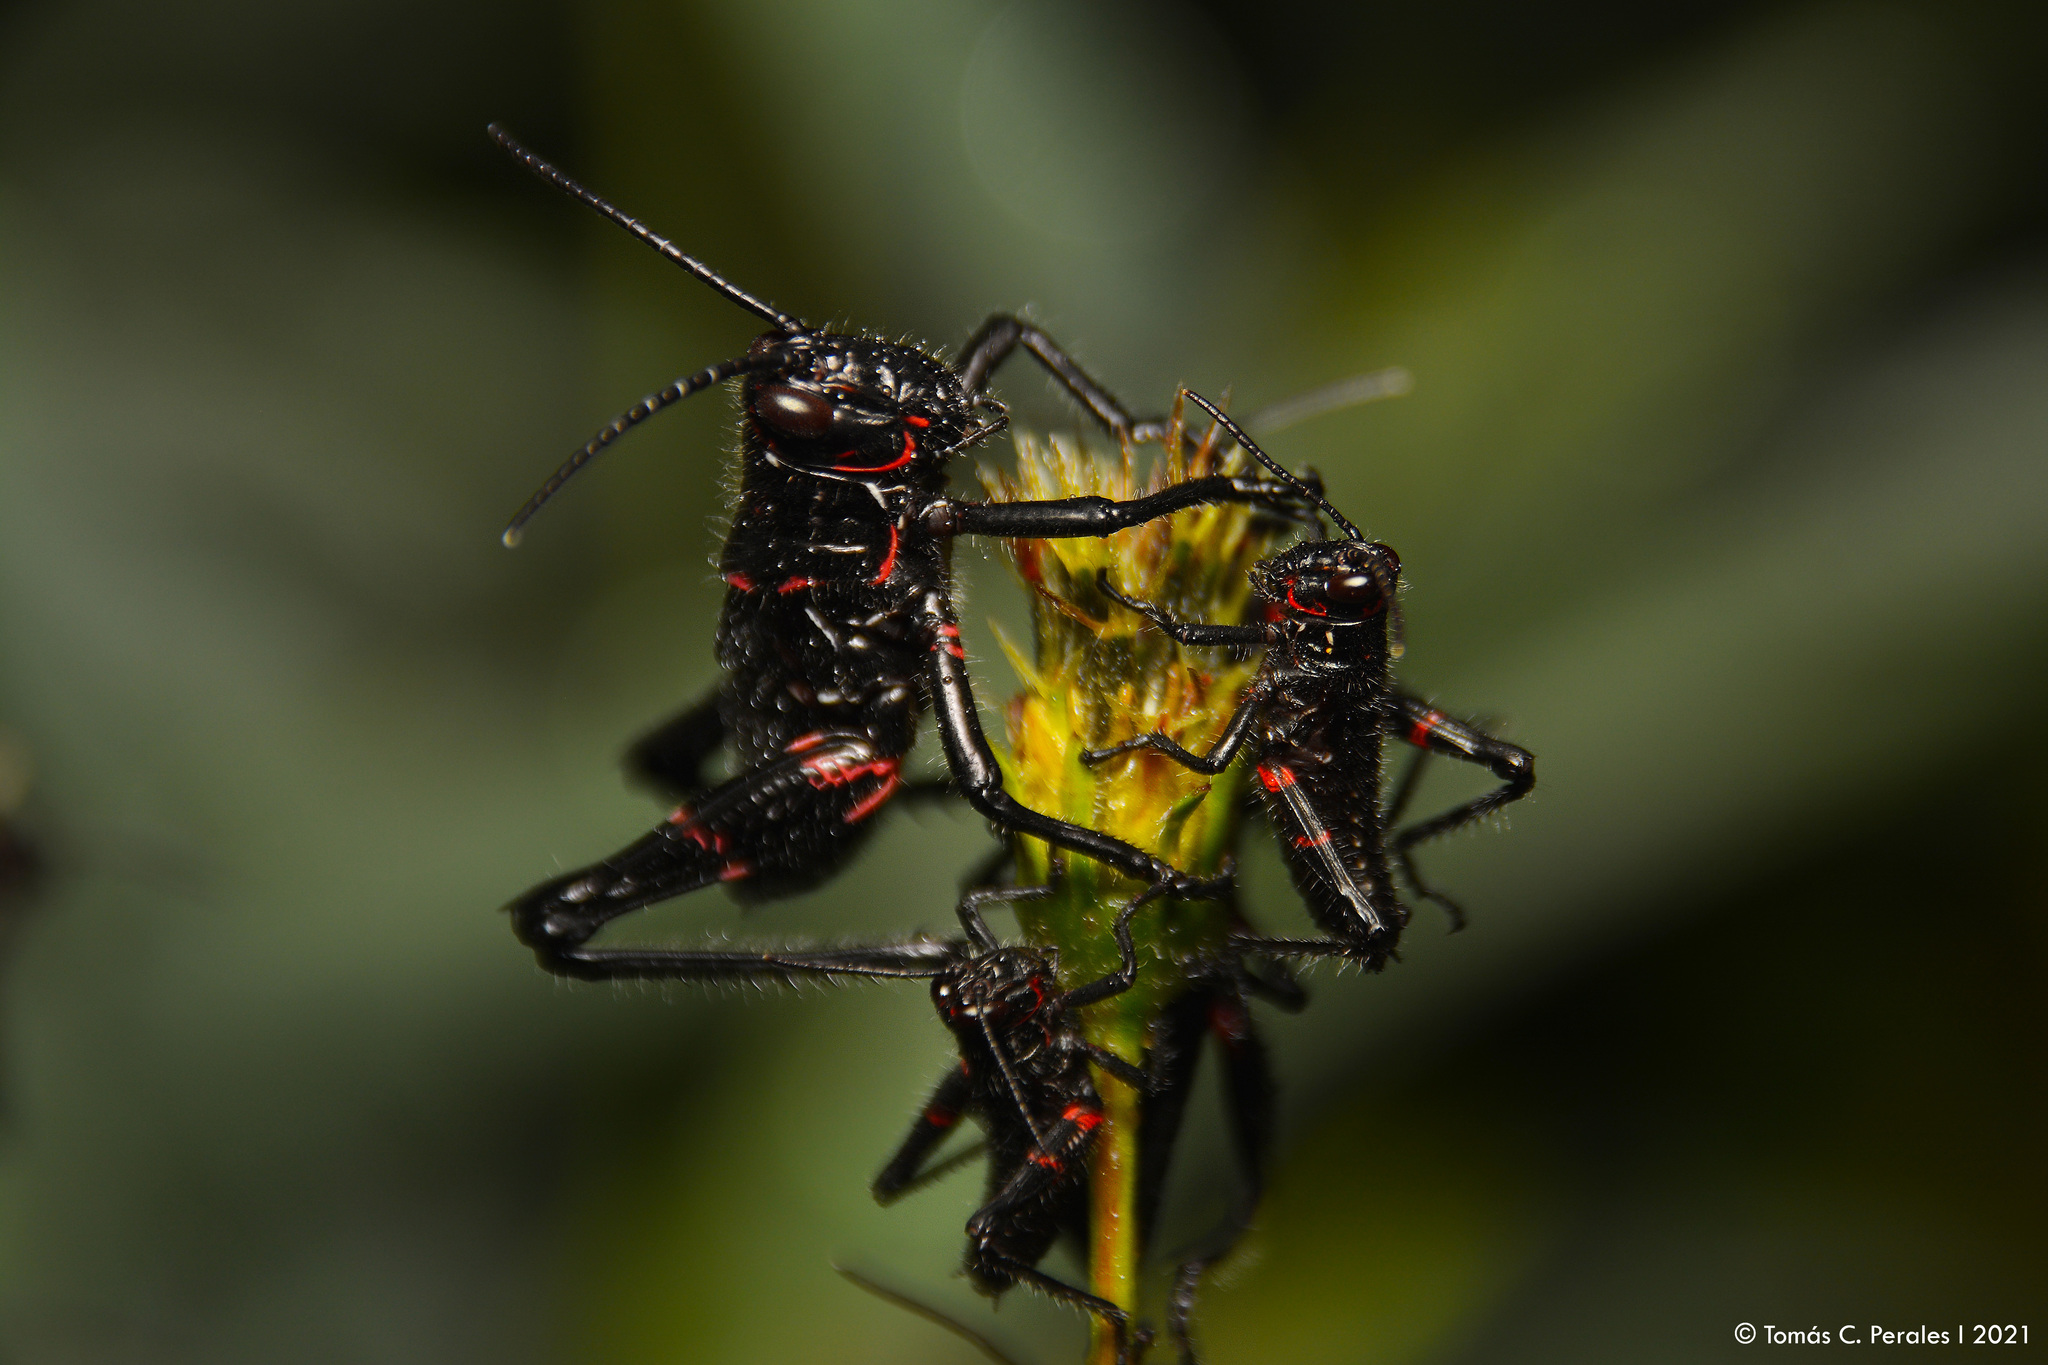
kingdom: Animalia
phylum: Arthropoda
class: Insecta
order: Orthoptera
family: Romaleidae
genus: Chromacris
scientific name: Chromacris speciosa
